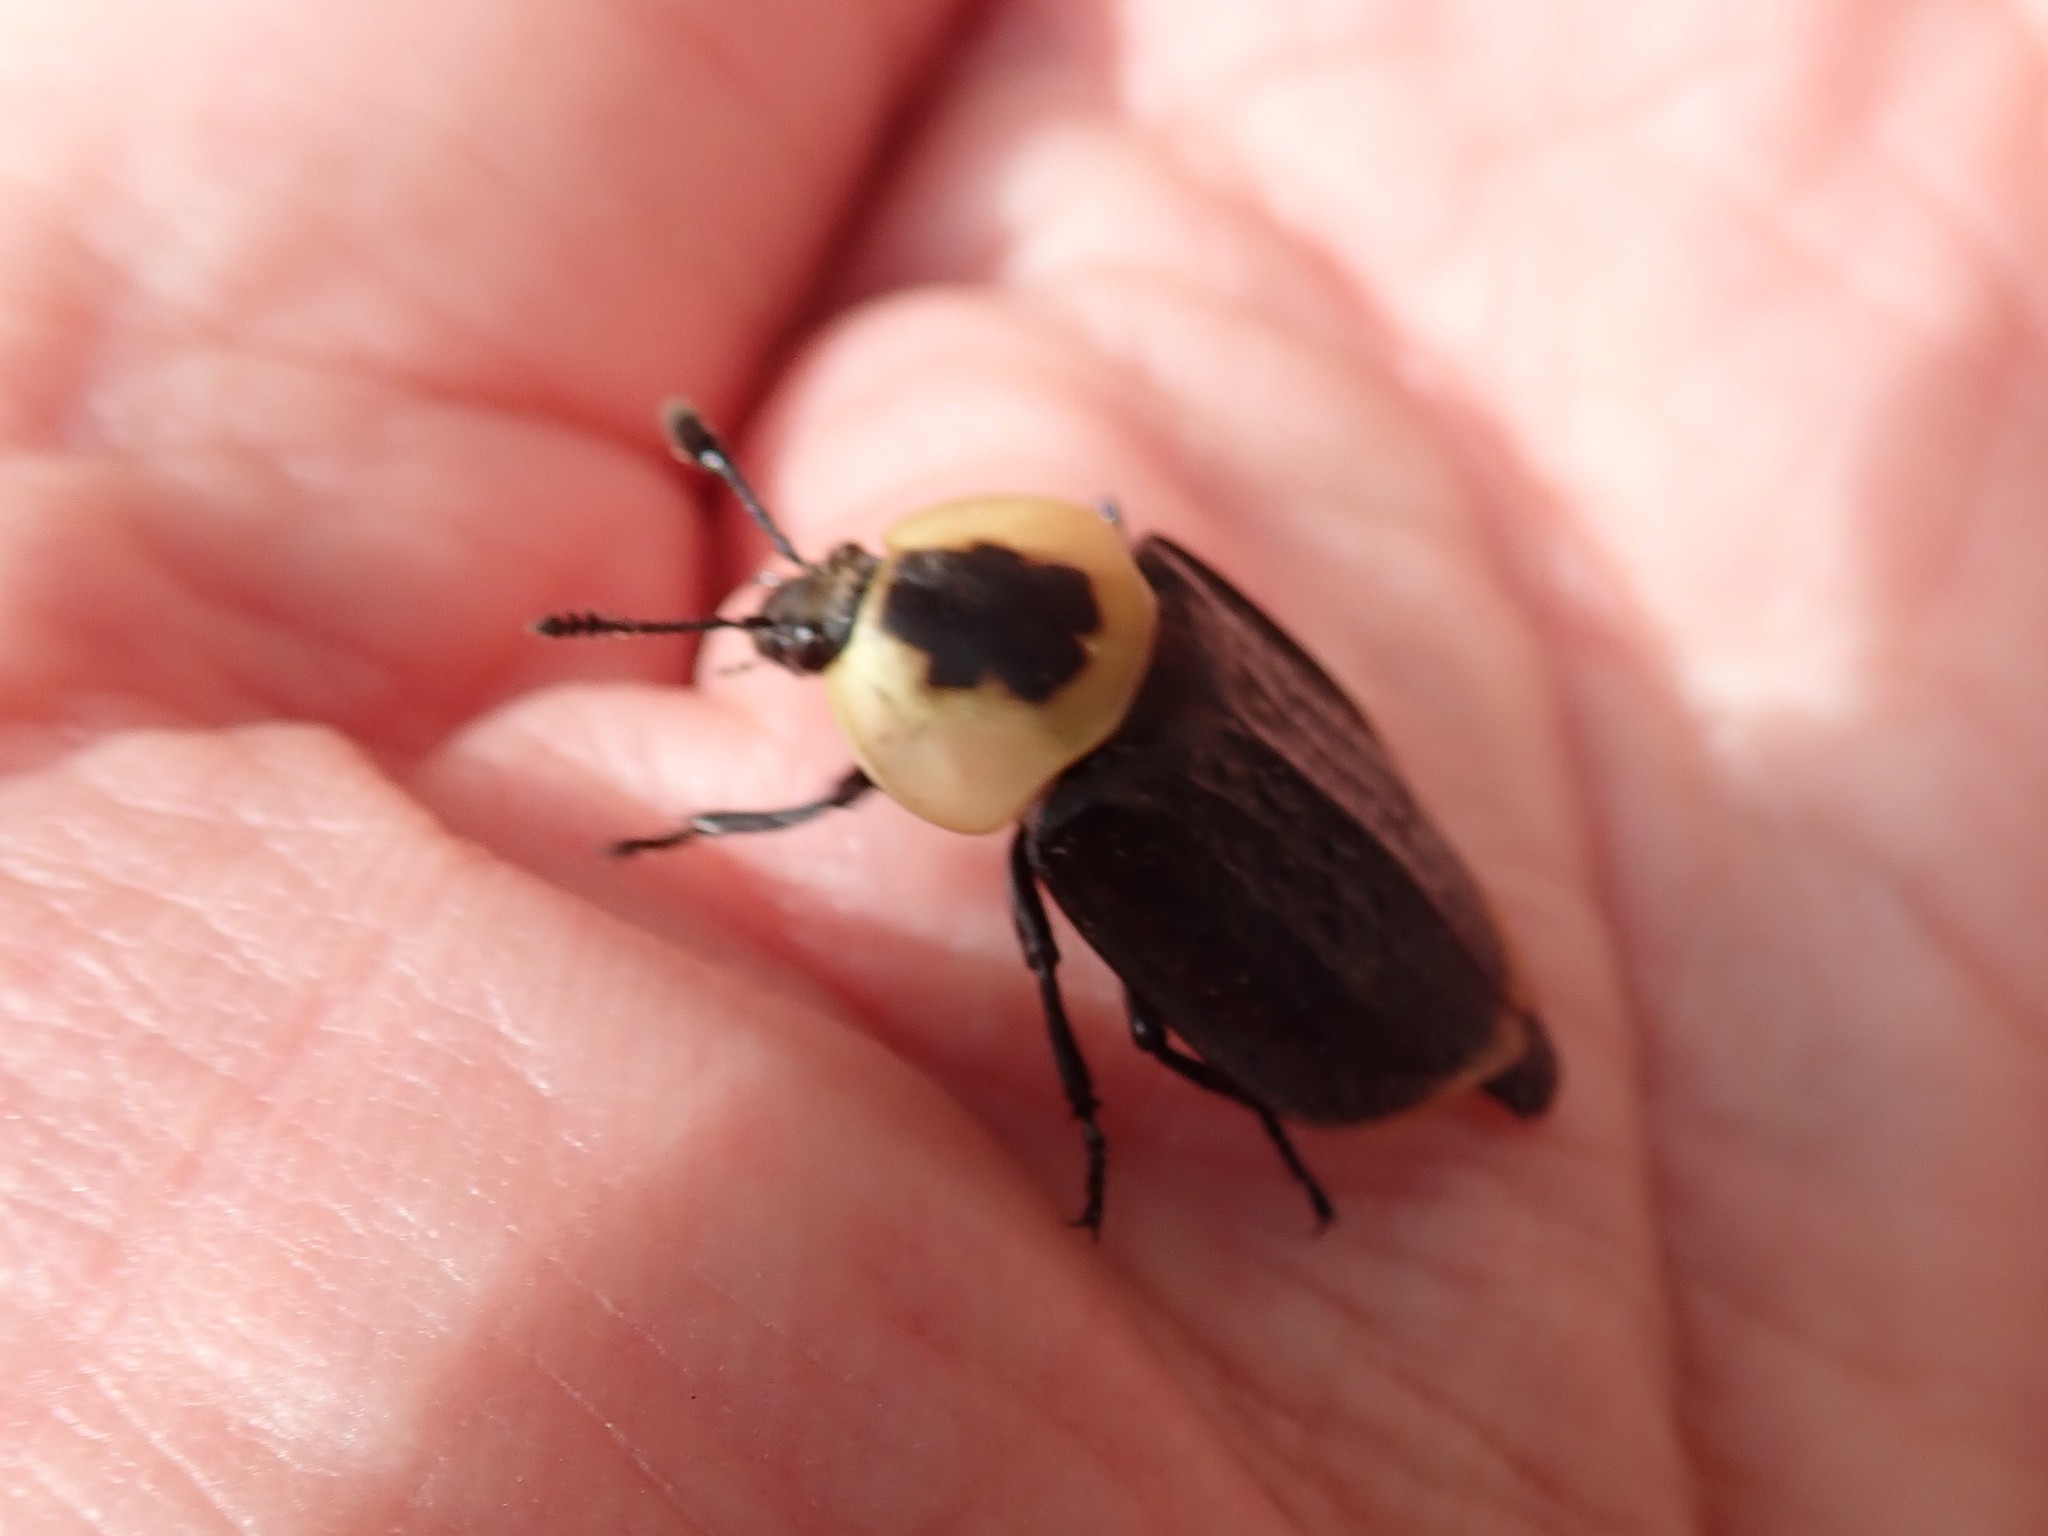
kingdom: Animalia
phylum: Arthropoda
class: Insecta
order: Coleoptera
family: Staphylinidae
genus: Necrophila
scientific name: Necrophila americana
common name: American carrion beetle
